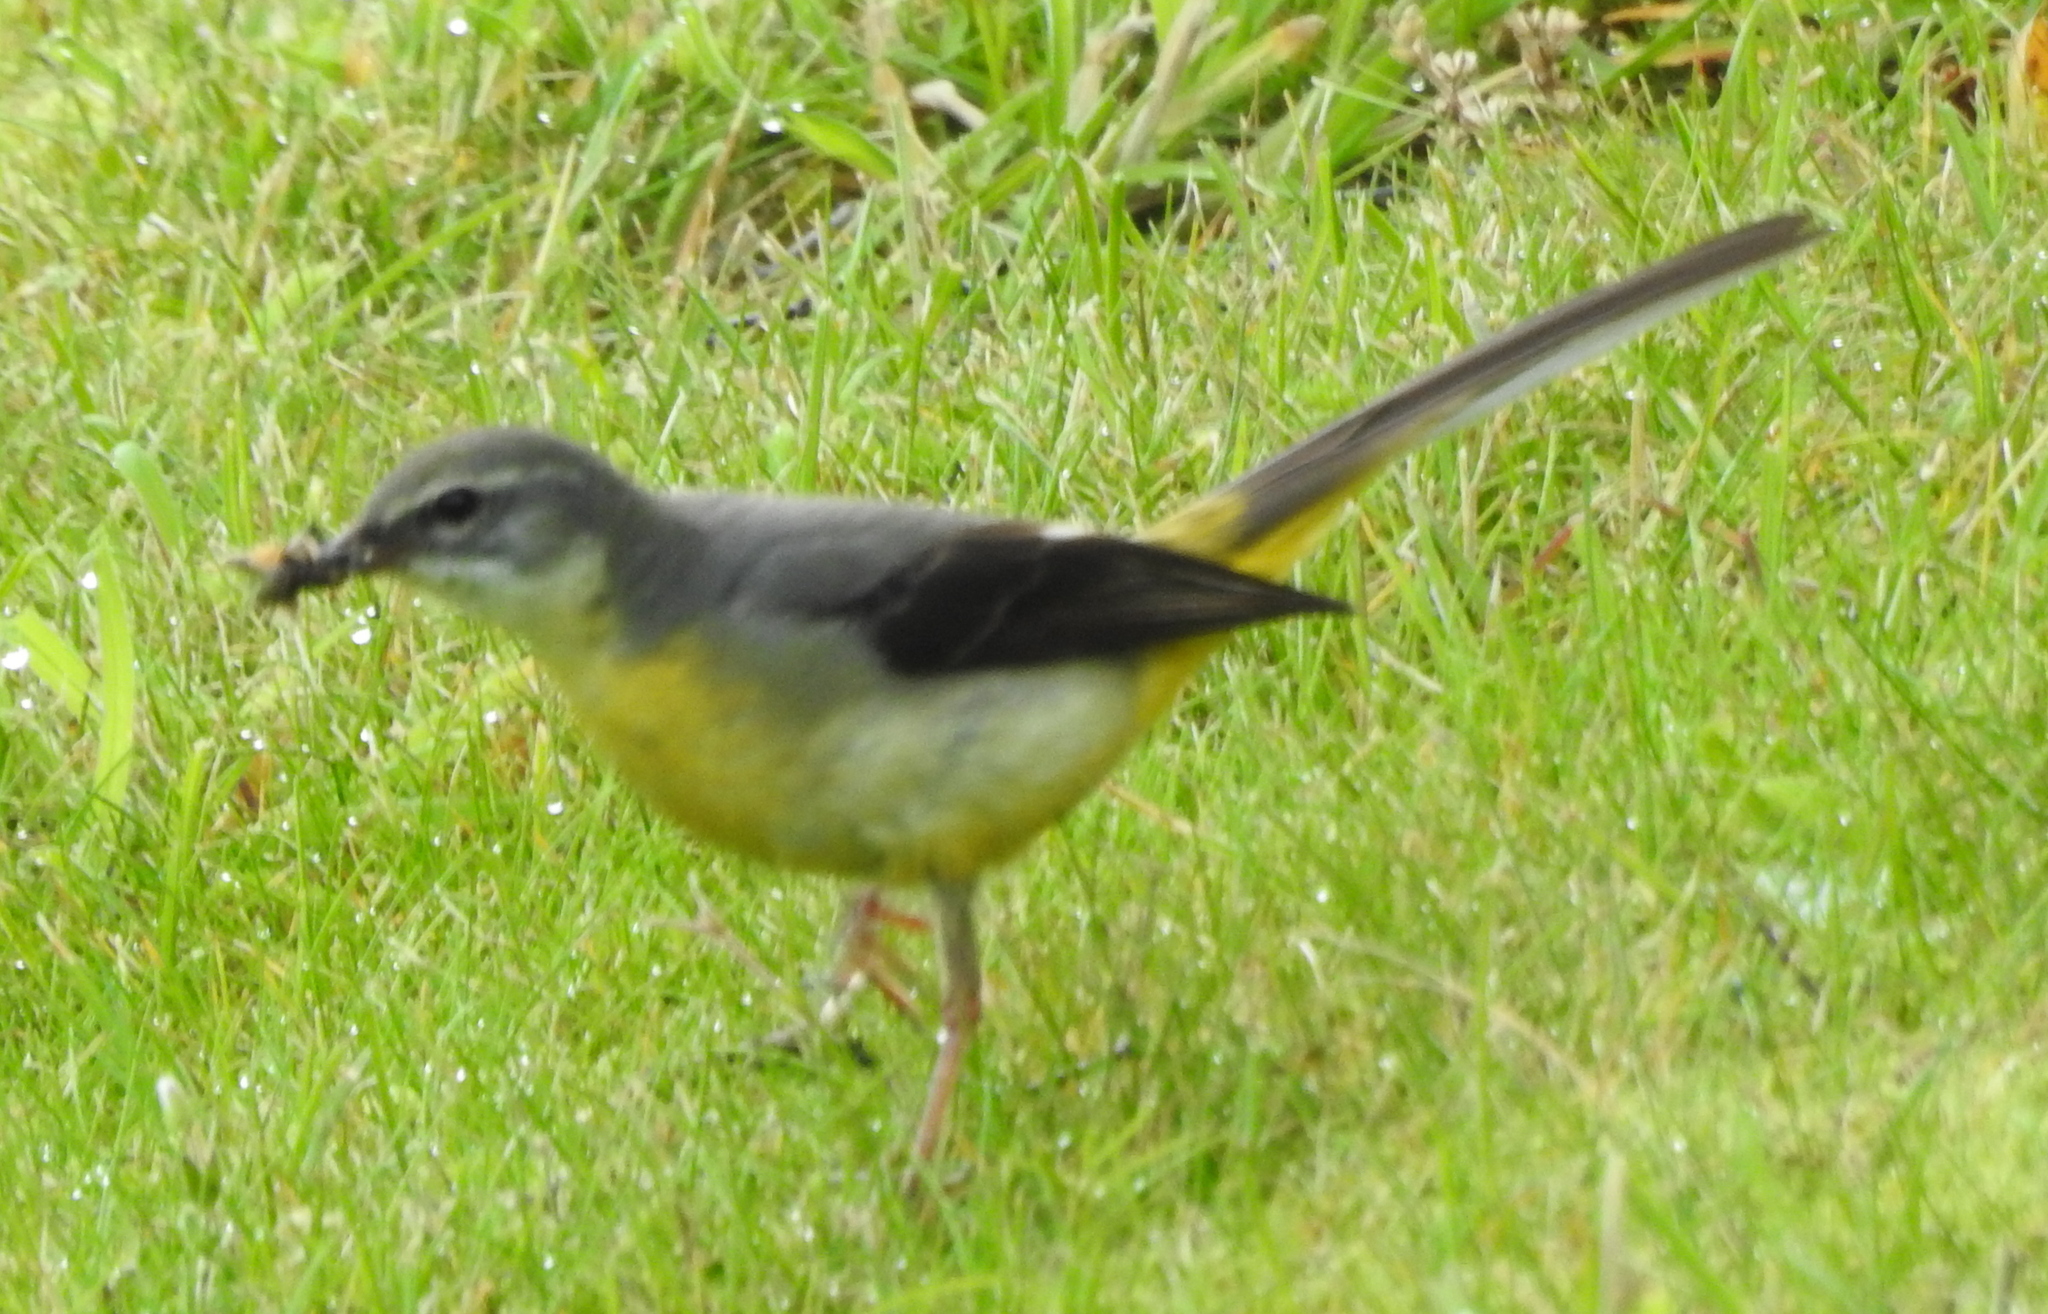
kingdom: Animalia
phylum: Chordata
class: Aves
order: Passeriformes
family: Motacillidae
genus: Motacilla
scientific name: Motacilla cinerea
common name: Grey wagtail
